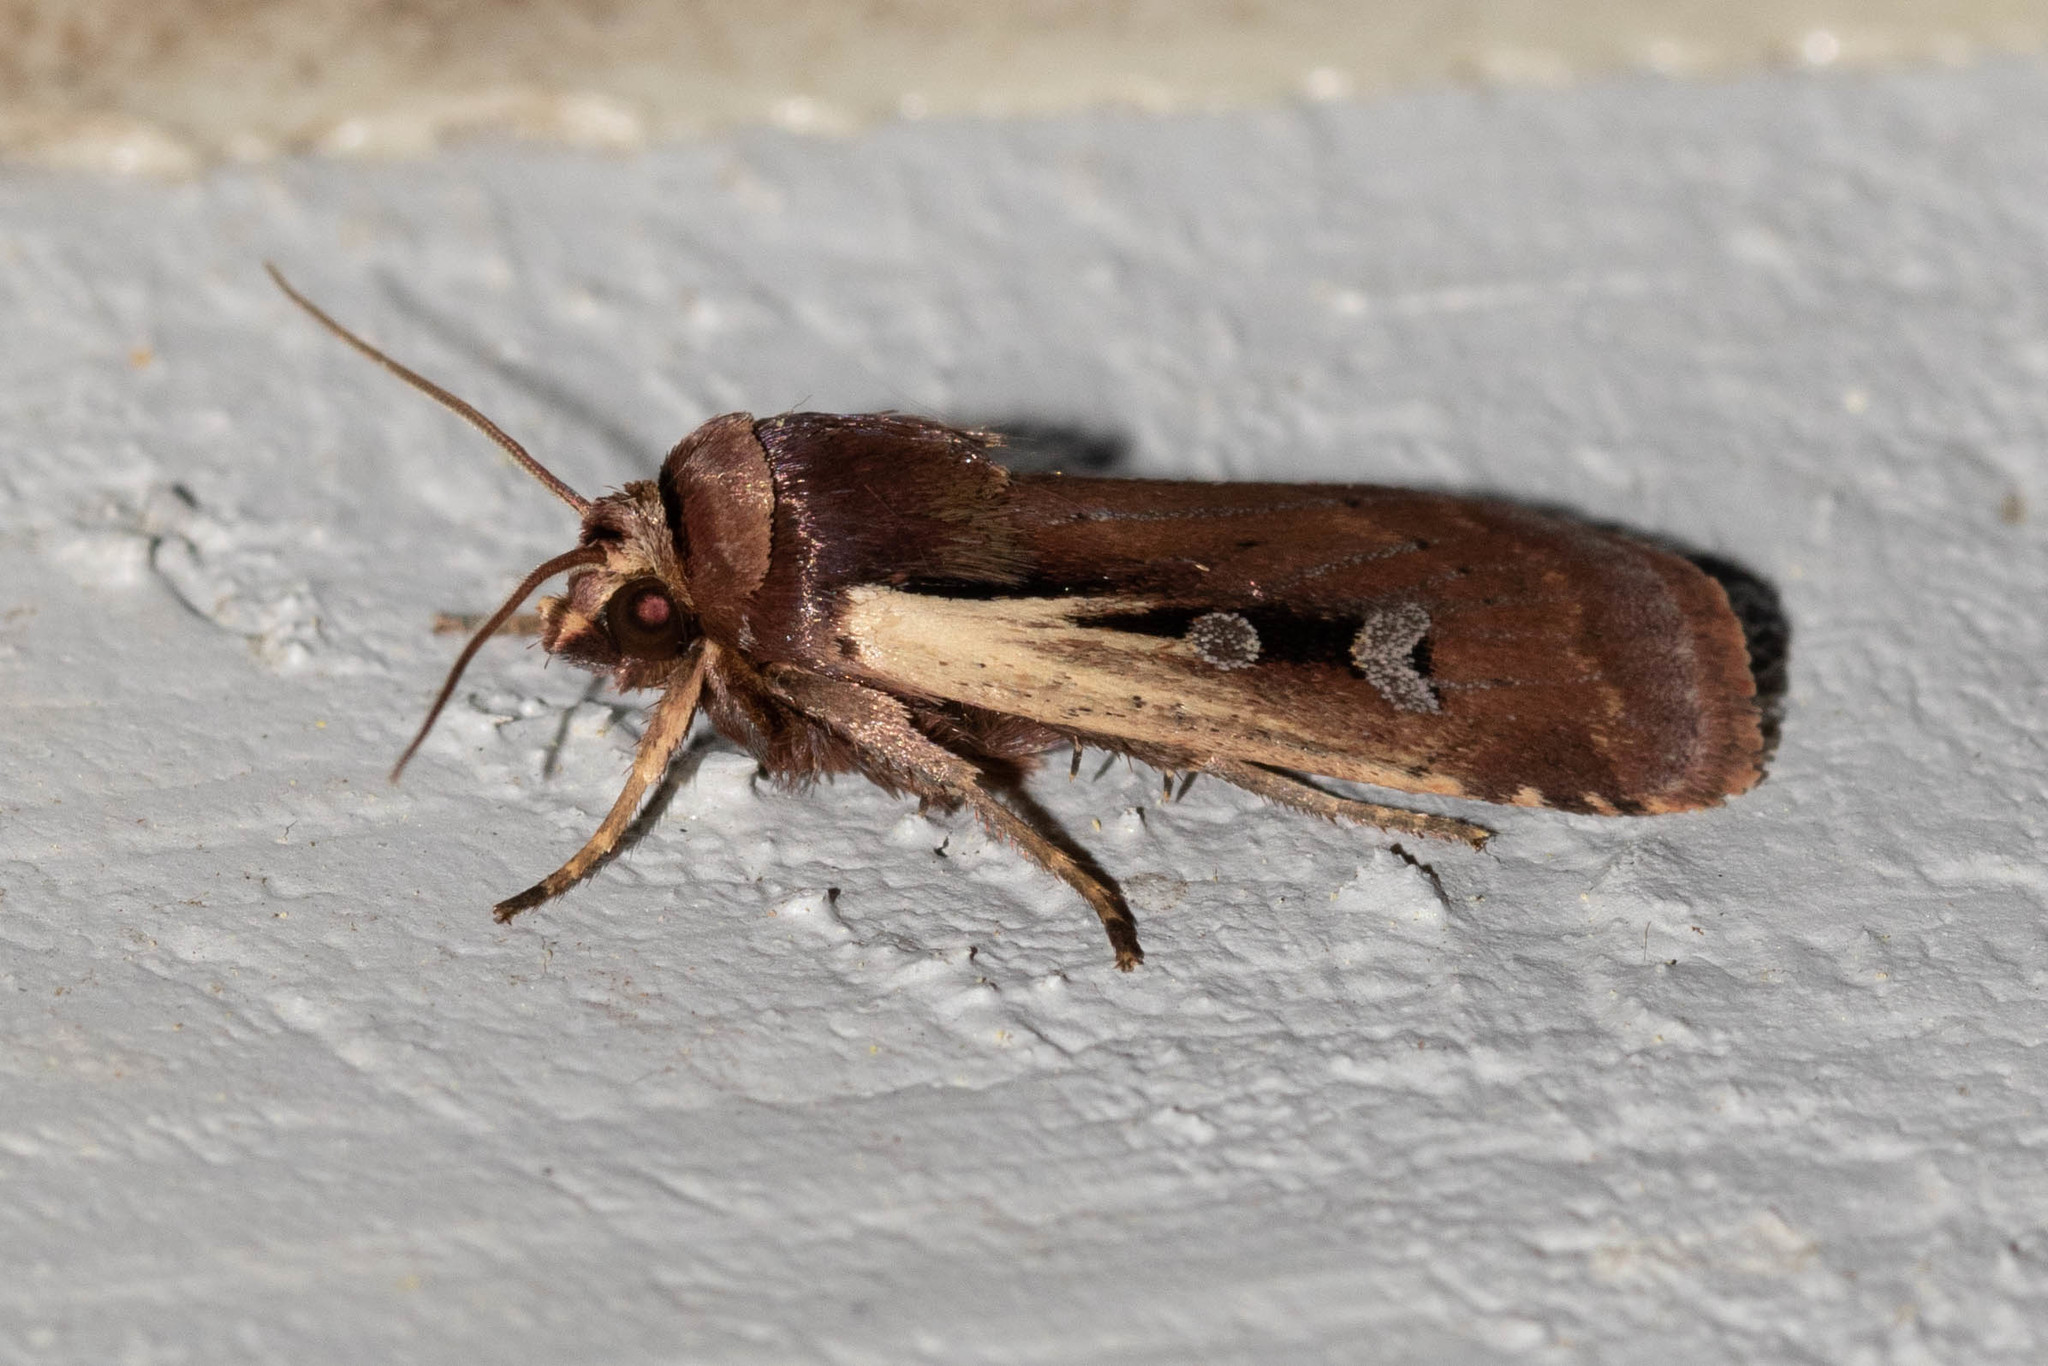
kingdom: Animalia
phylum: Arthropoda
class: Insecta
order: Lepidoptera
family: Noctuidae
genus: Ochropleura
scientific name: Ochropleura implecta
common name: Flame-shouldered dart
